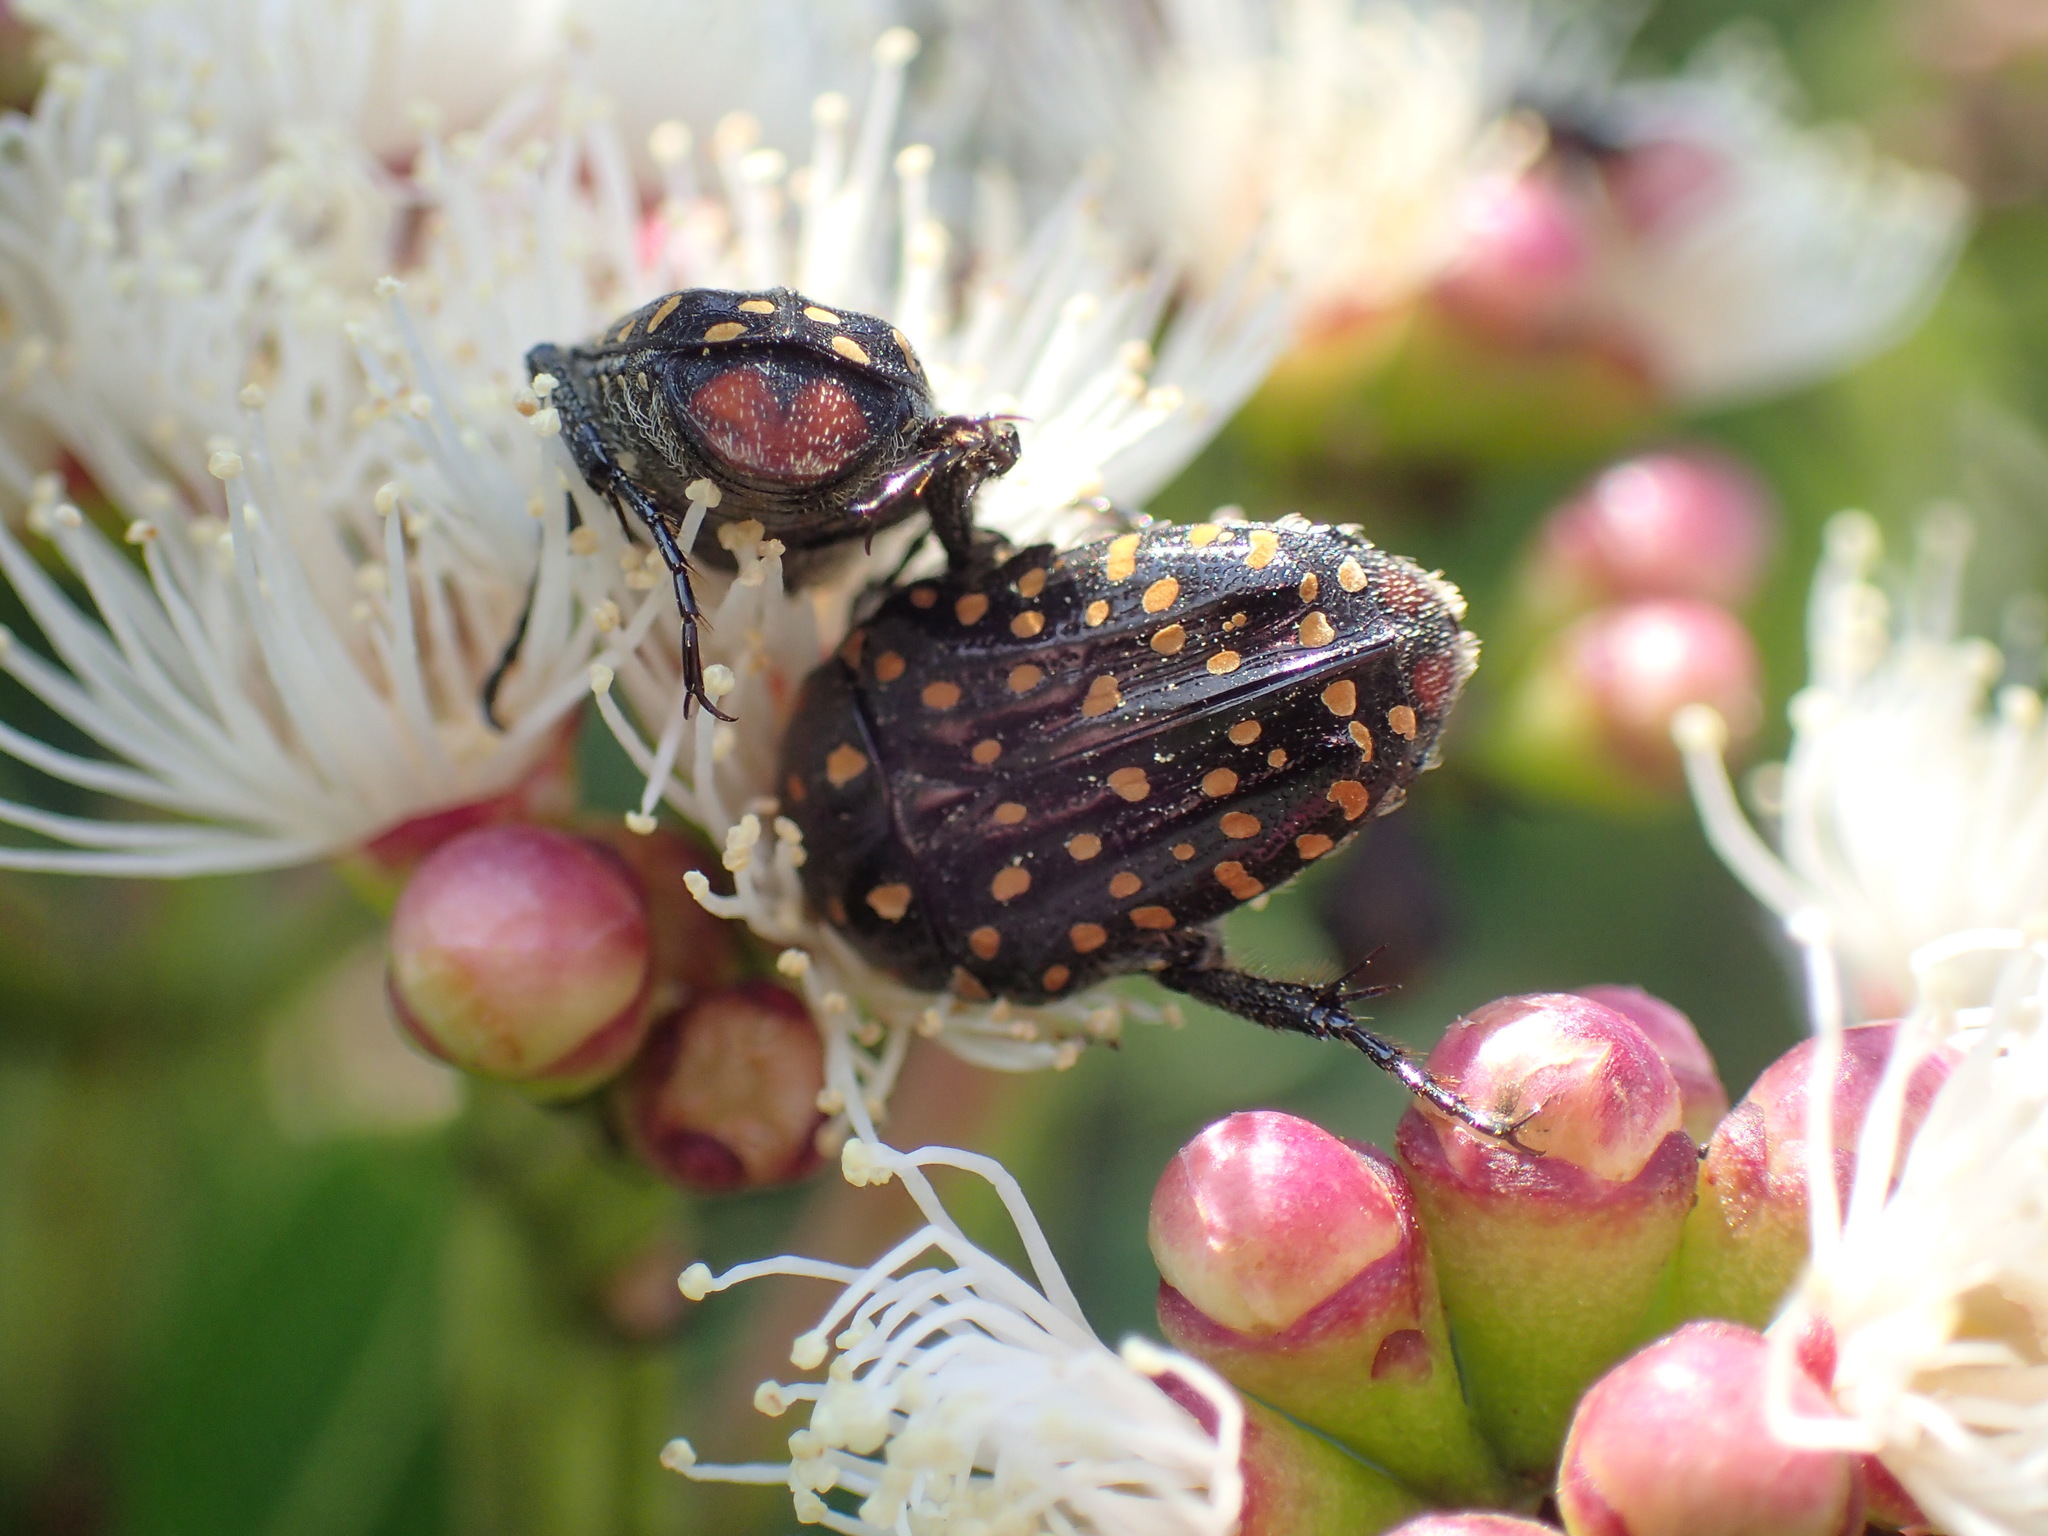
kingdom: Animalia
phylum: Arthropoda
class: Insecta
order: Coleoptera
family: Scarabaeidae
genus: Oxythyrea
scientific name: Oxythyrea
